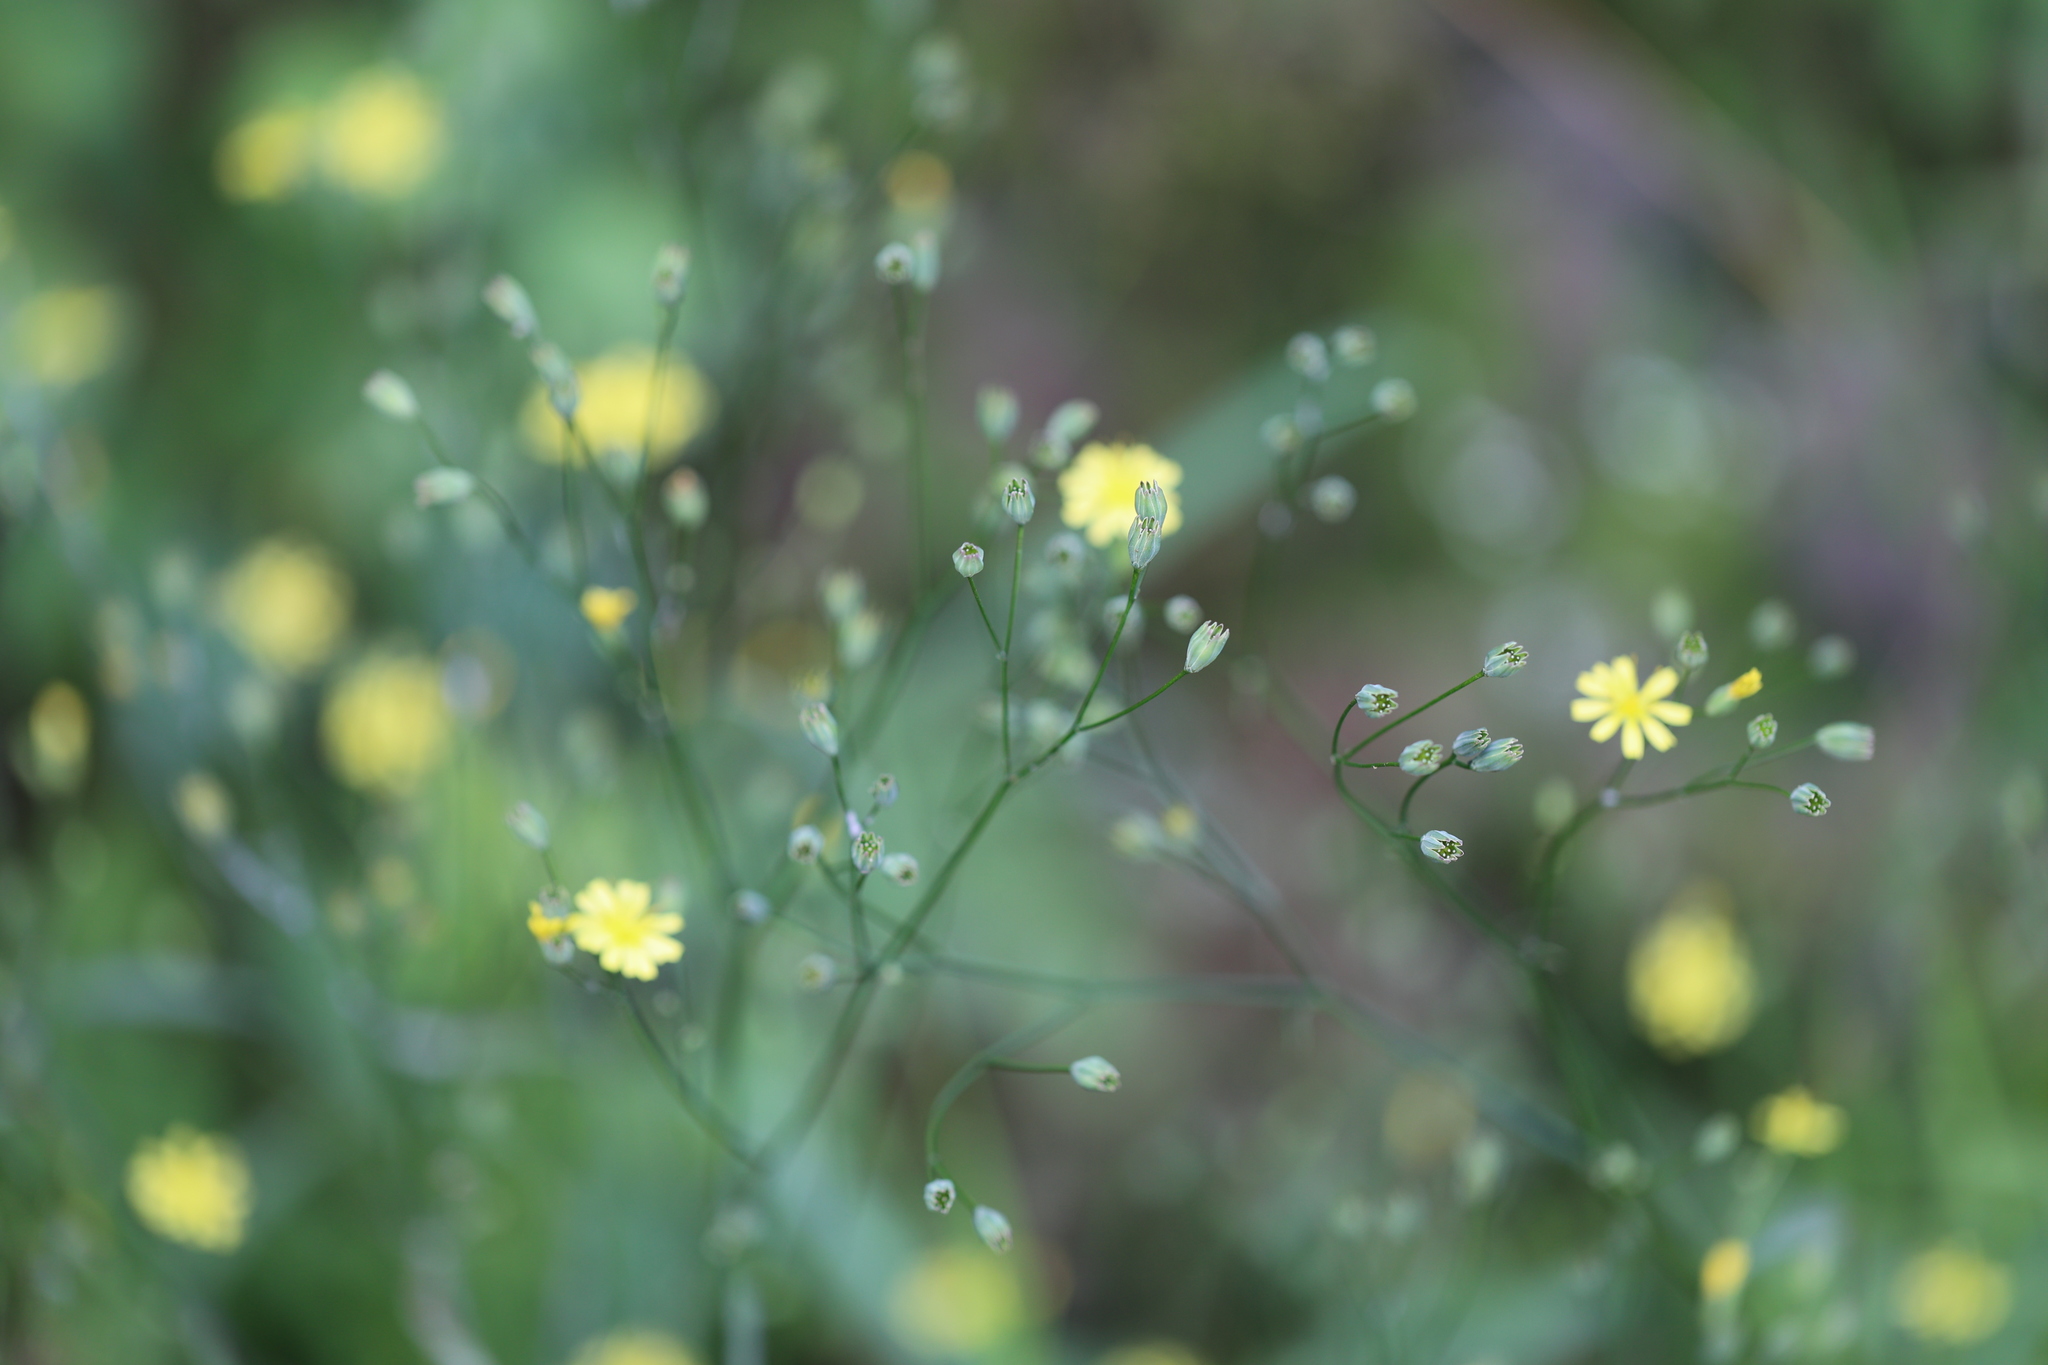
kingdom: Plantae
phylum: Tracheophyta
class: Magnoliopsida
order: Asterales
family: Asteraceae
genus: Lapsana
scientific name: Lapsana communis
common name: Nipplewort
